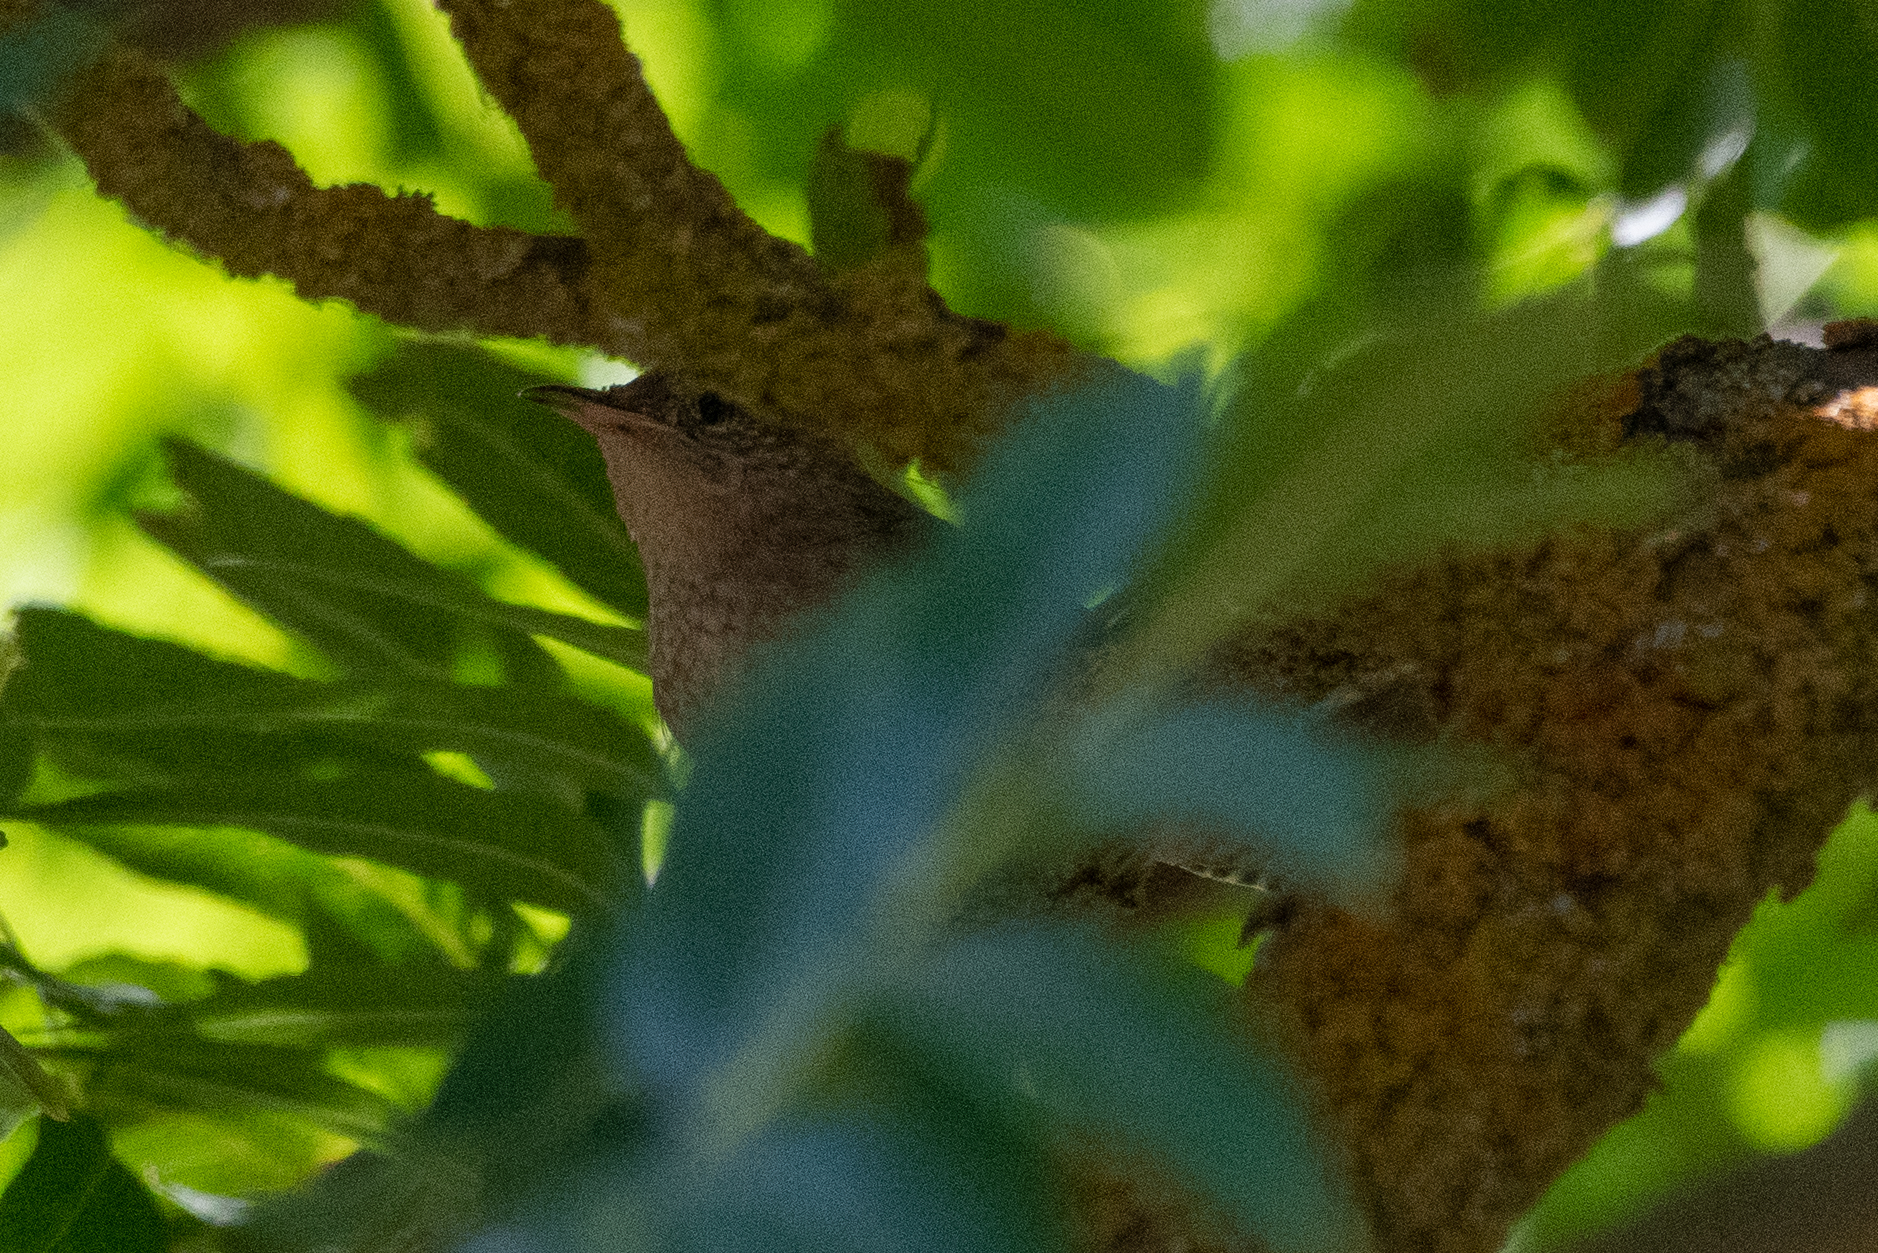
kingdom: Animalia
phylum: Chordata
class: Aves
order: Passeriformes
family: Troglodytidae
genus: Troglodytes
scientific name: Troglodytes aedon
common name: House wren
